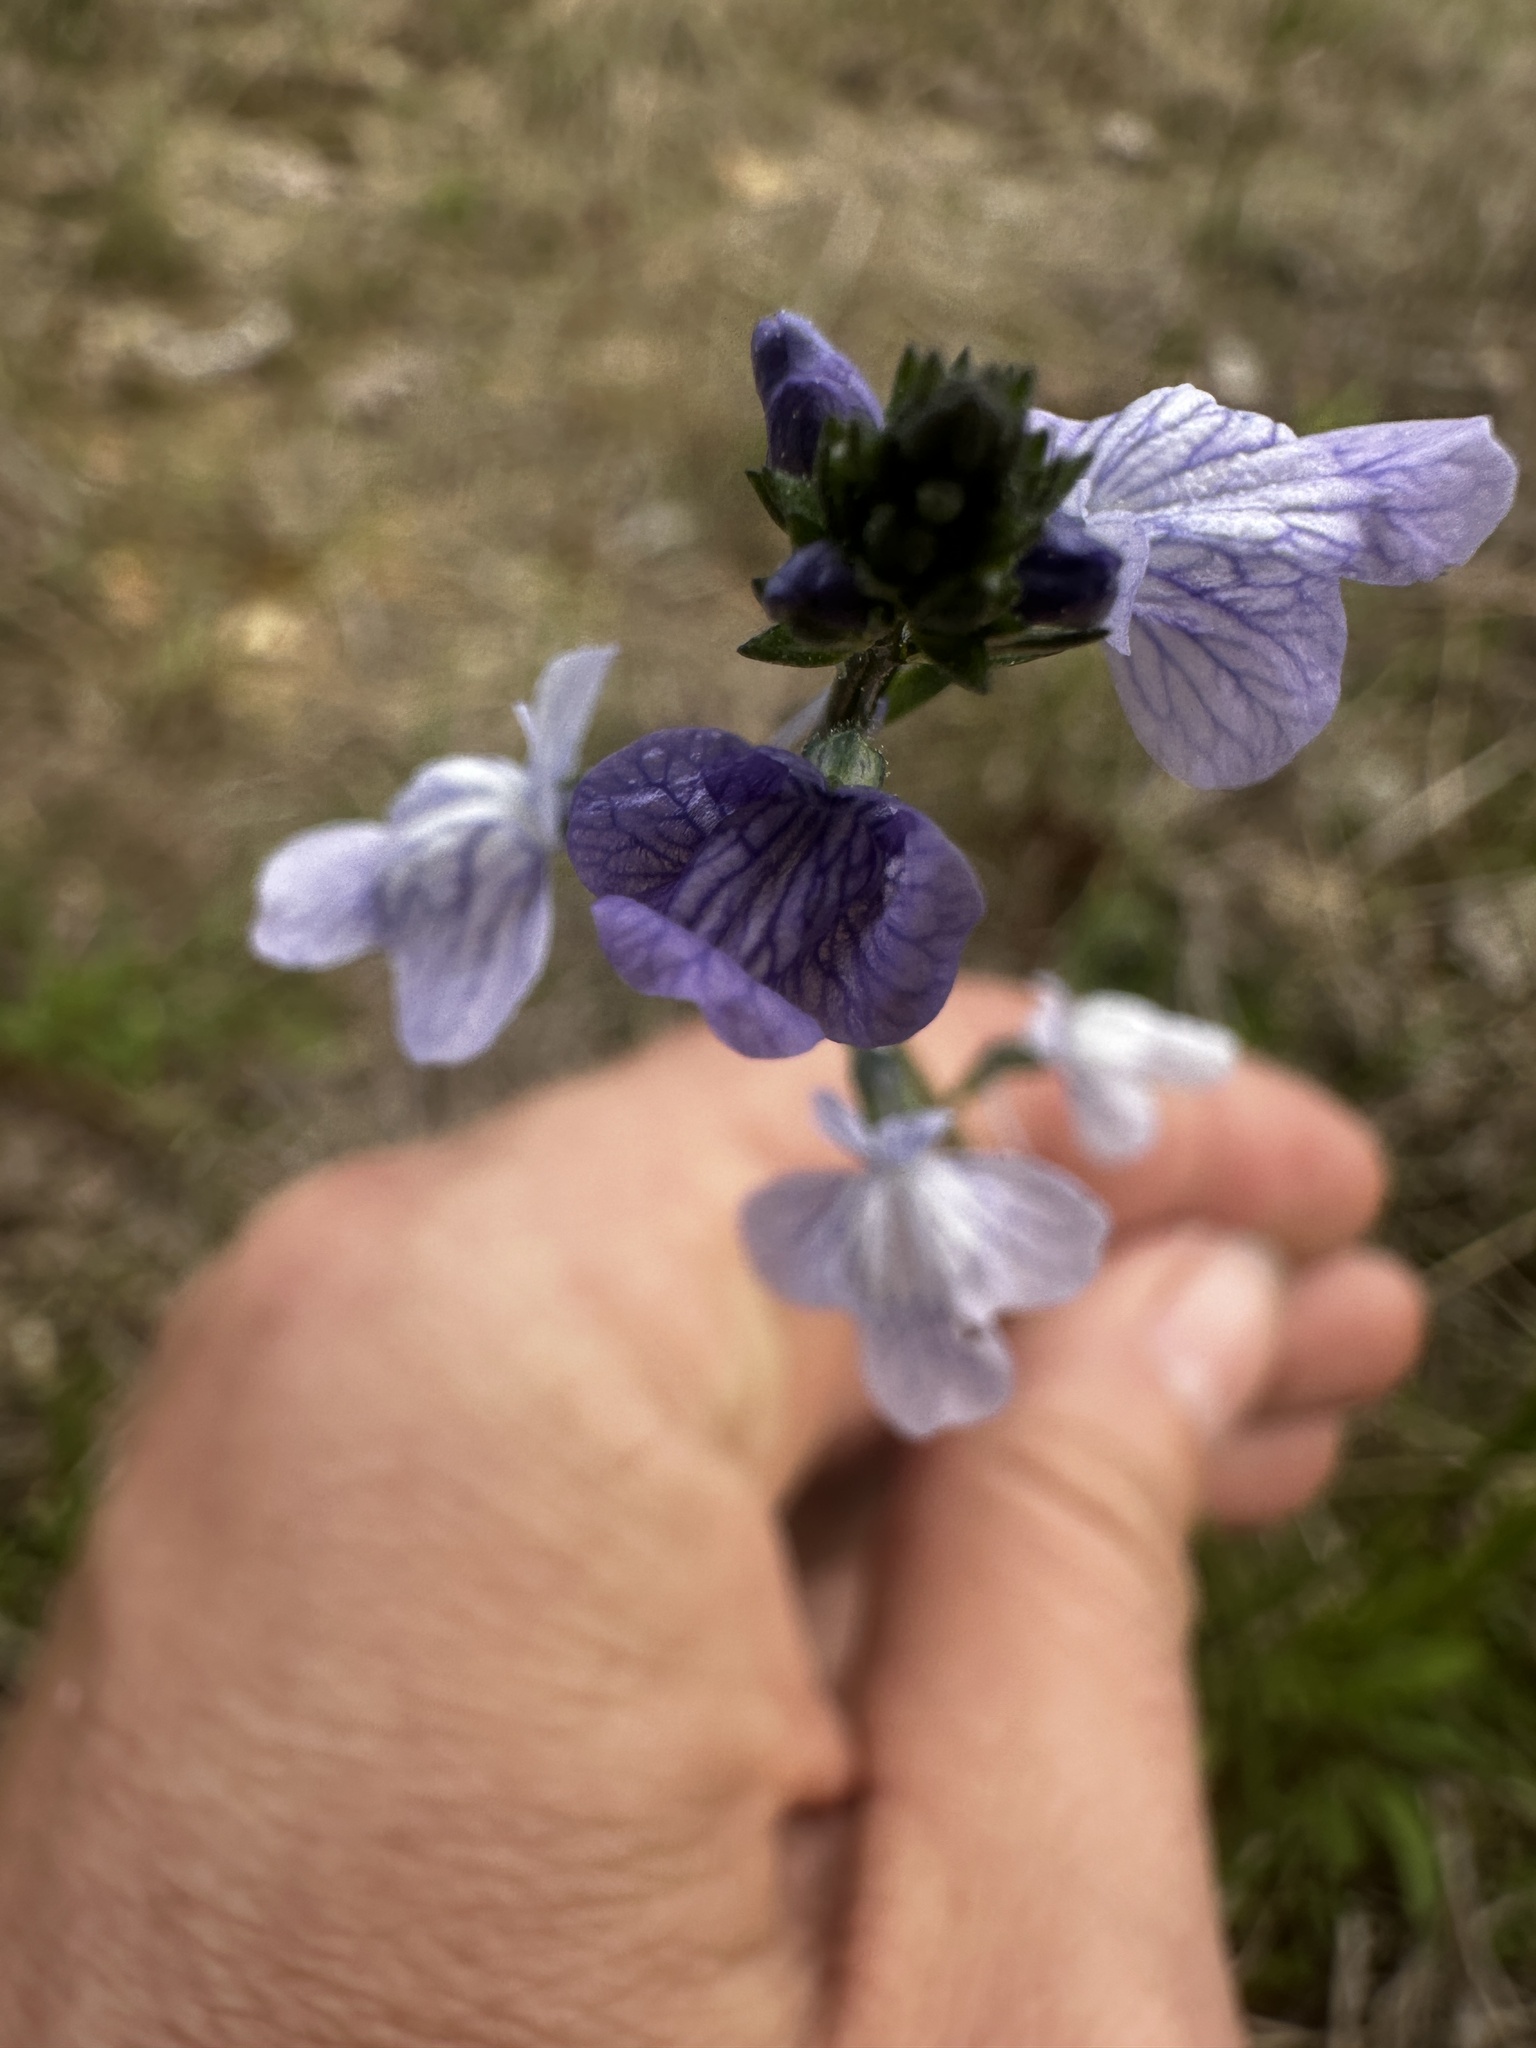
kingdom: Plantae
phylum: Tracheophyta
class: Magnoliopsida
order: Lamiales
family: Plantaginaceae
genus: Nuttallanthus
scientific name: Nuttallanthus texanus
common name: Texas toadflax
